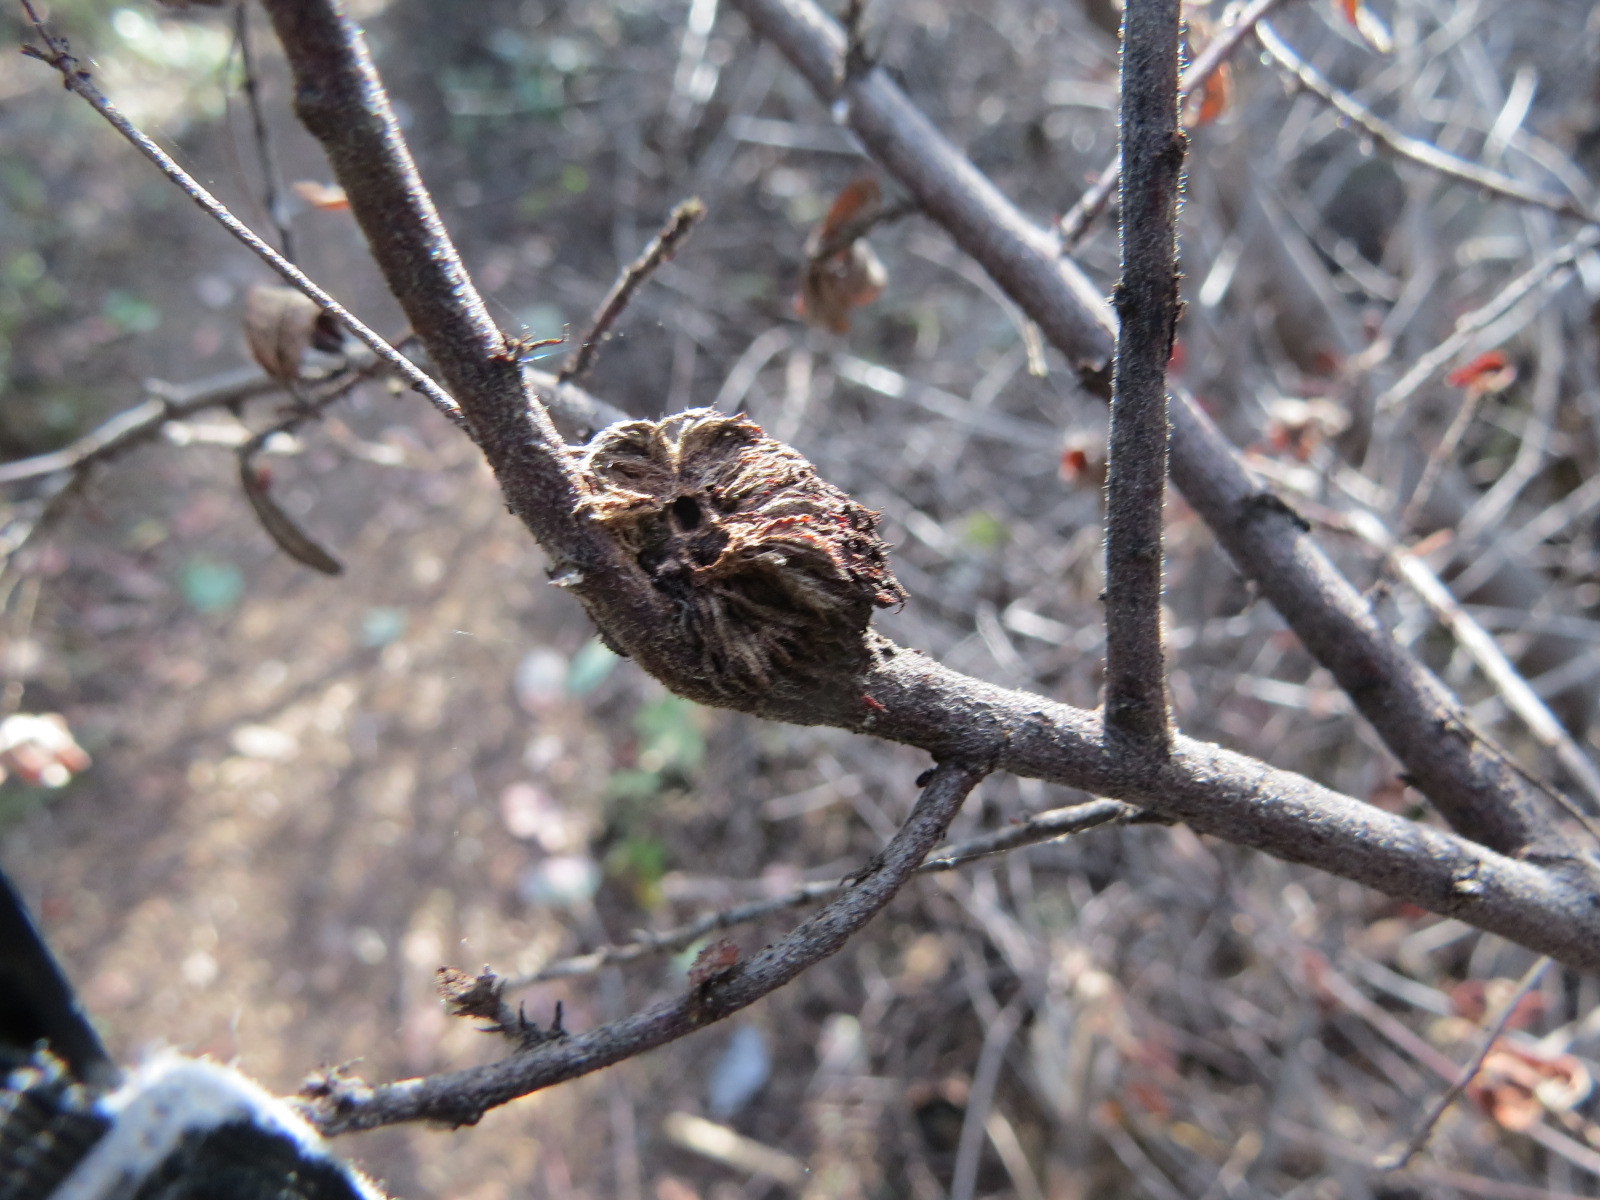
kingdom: Animalia
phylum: Arthropoda
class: Insecta
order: Diptera
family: Cecidomyiidae
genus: Asphondylia
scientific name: Asphondylia ceanothi
